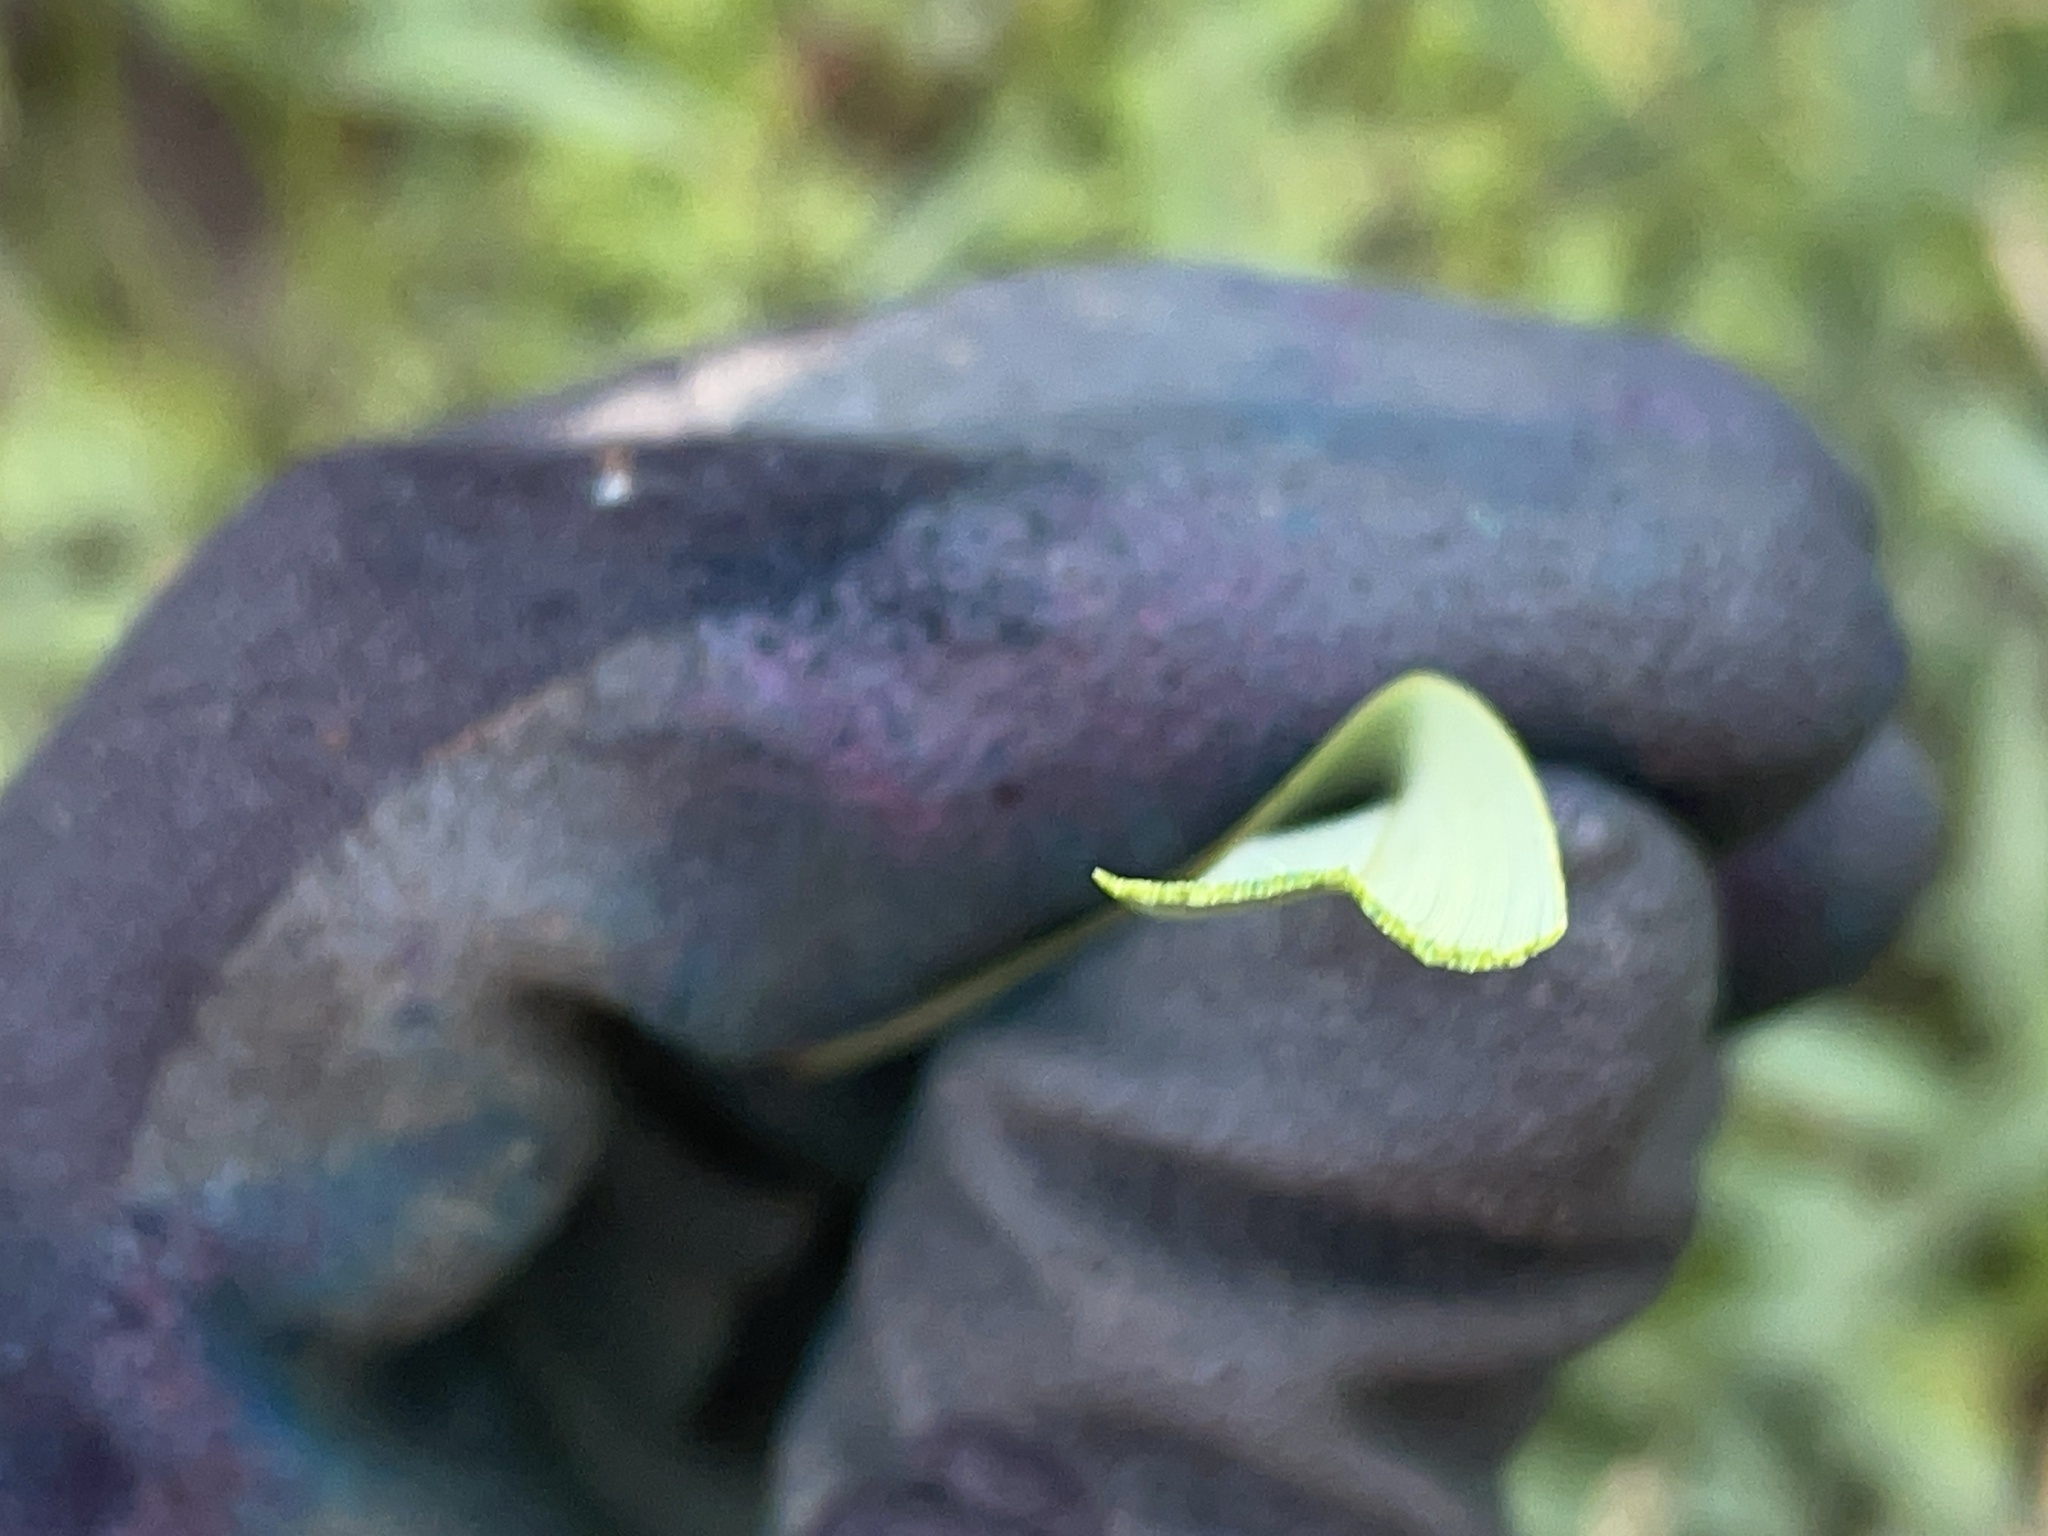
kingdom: Plantae
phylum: Tracheophyta
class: Liliopsida
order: Asparagales
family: Asphodelaceae
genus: Dianella
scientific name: Dianella amoena
